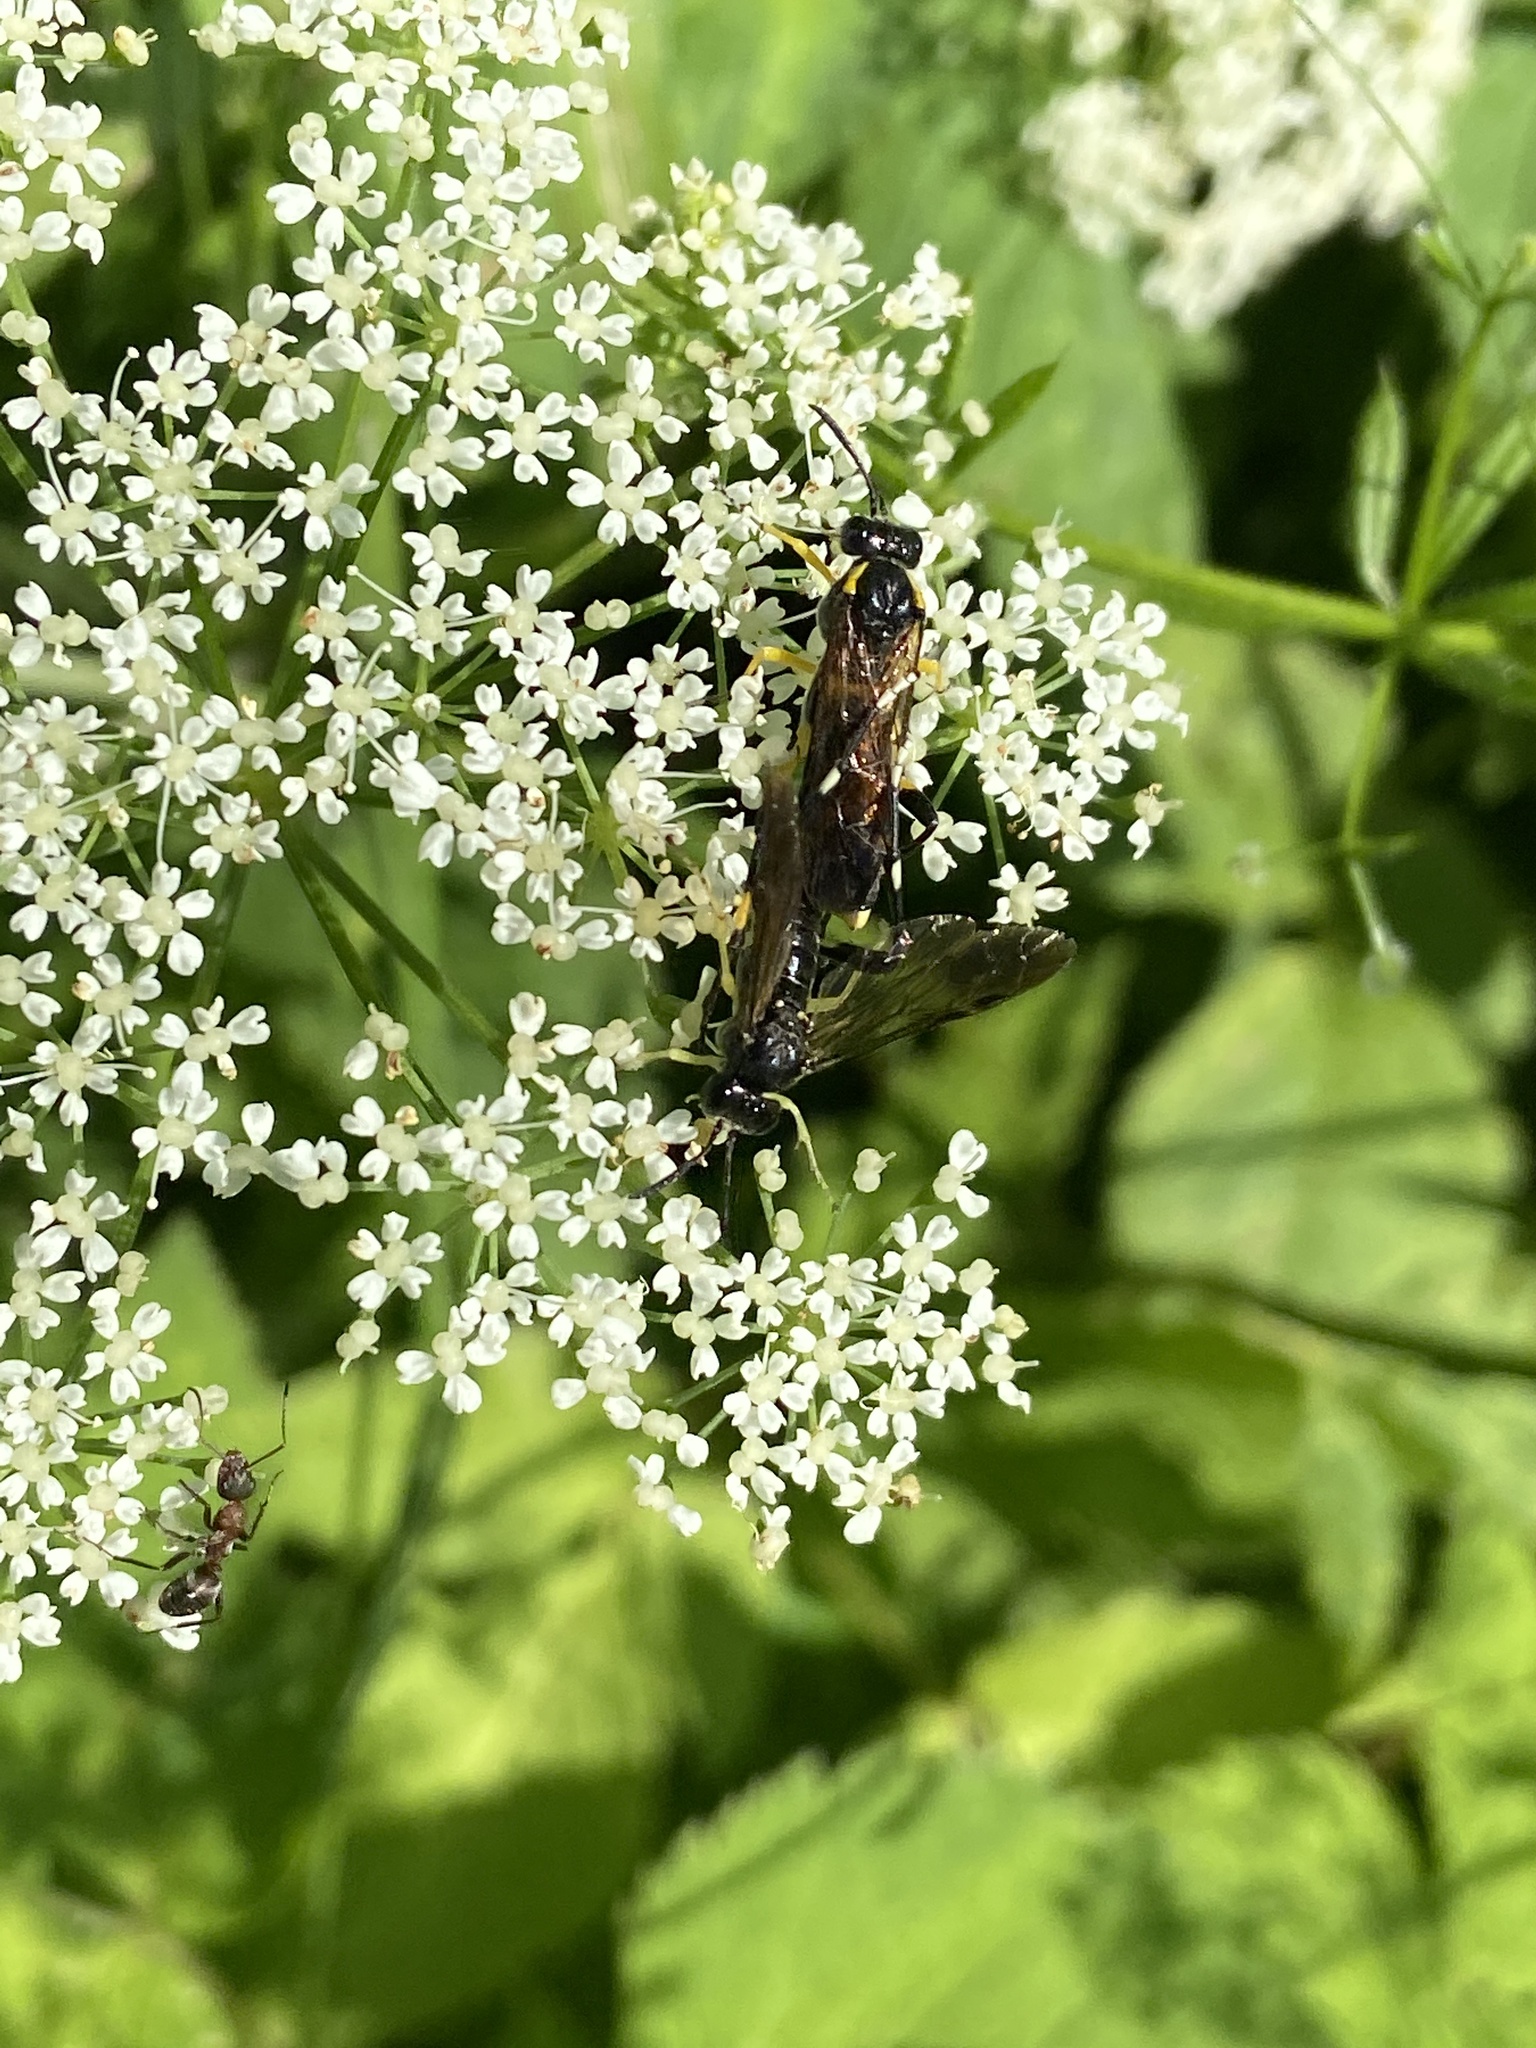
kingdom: Animalia
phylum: Arthropoda
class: Insecta
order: Hymenoptera
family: Tenthredinidae
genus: Macrophya
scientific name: Macrophya montana
